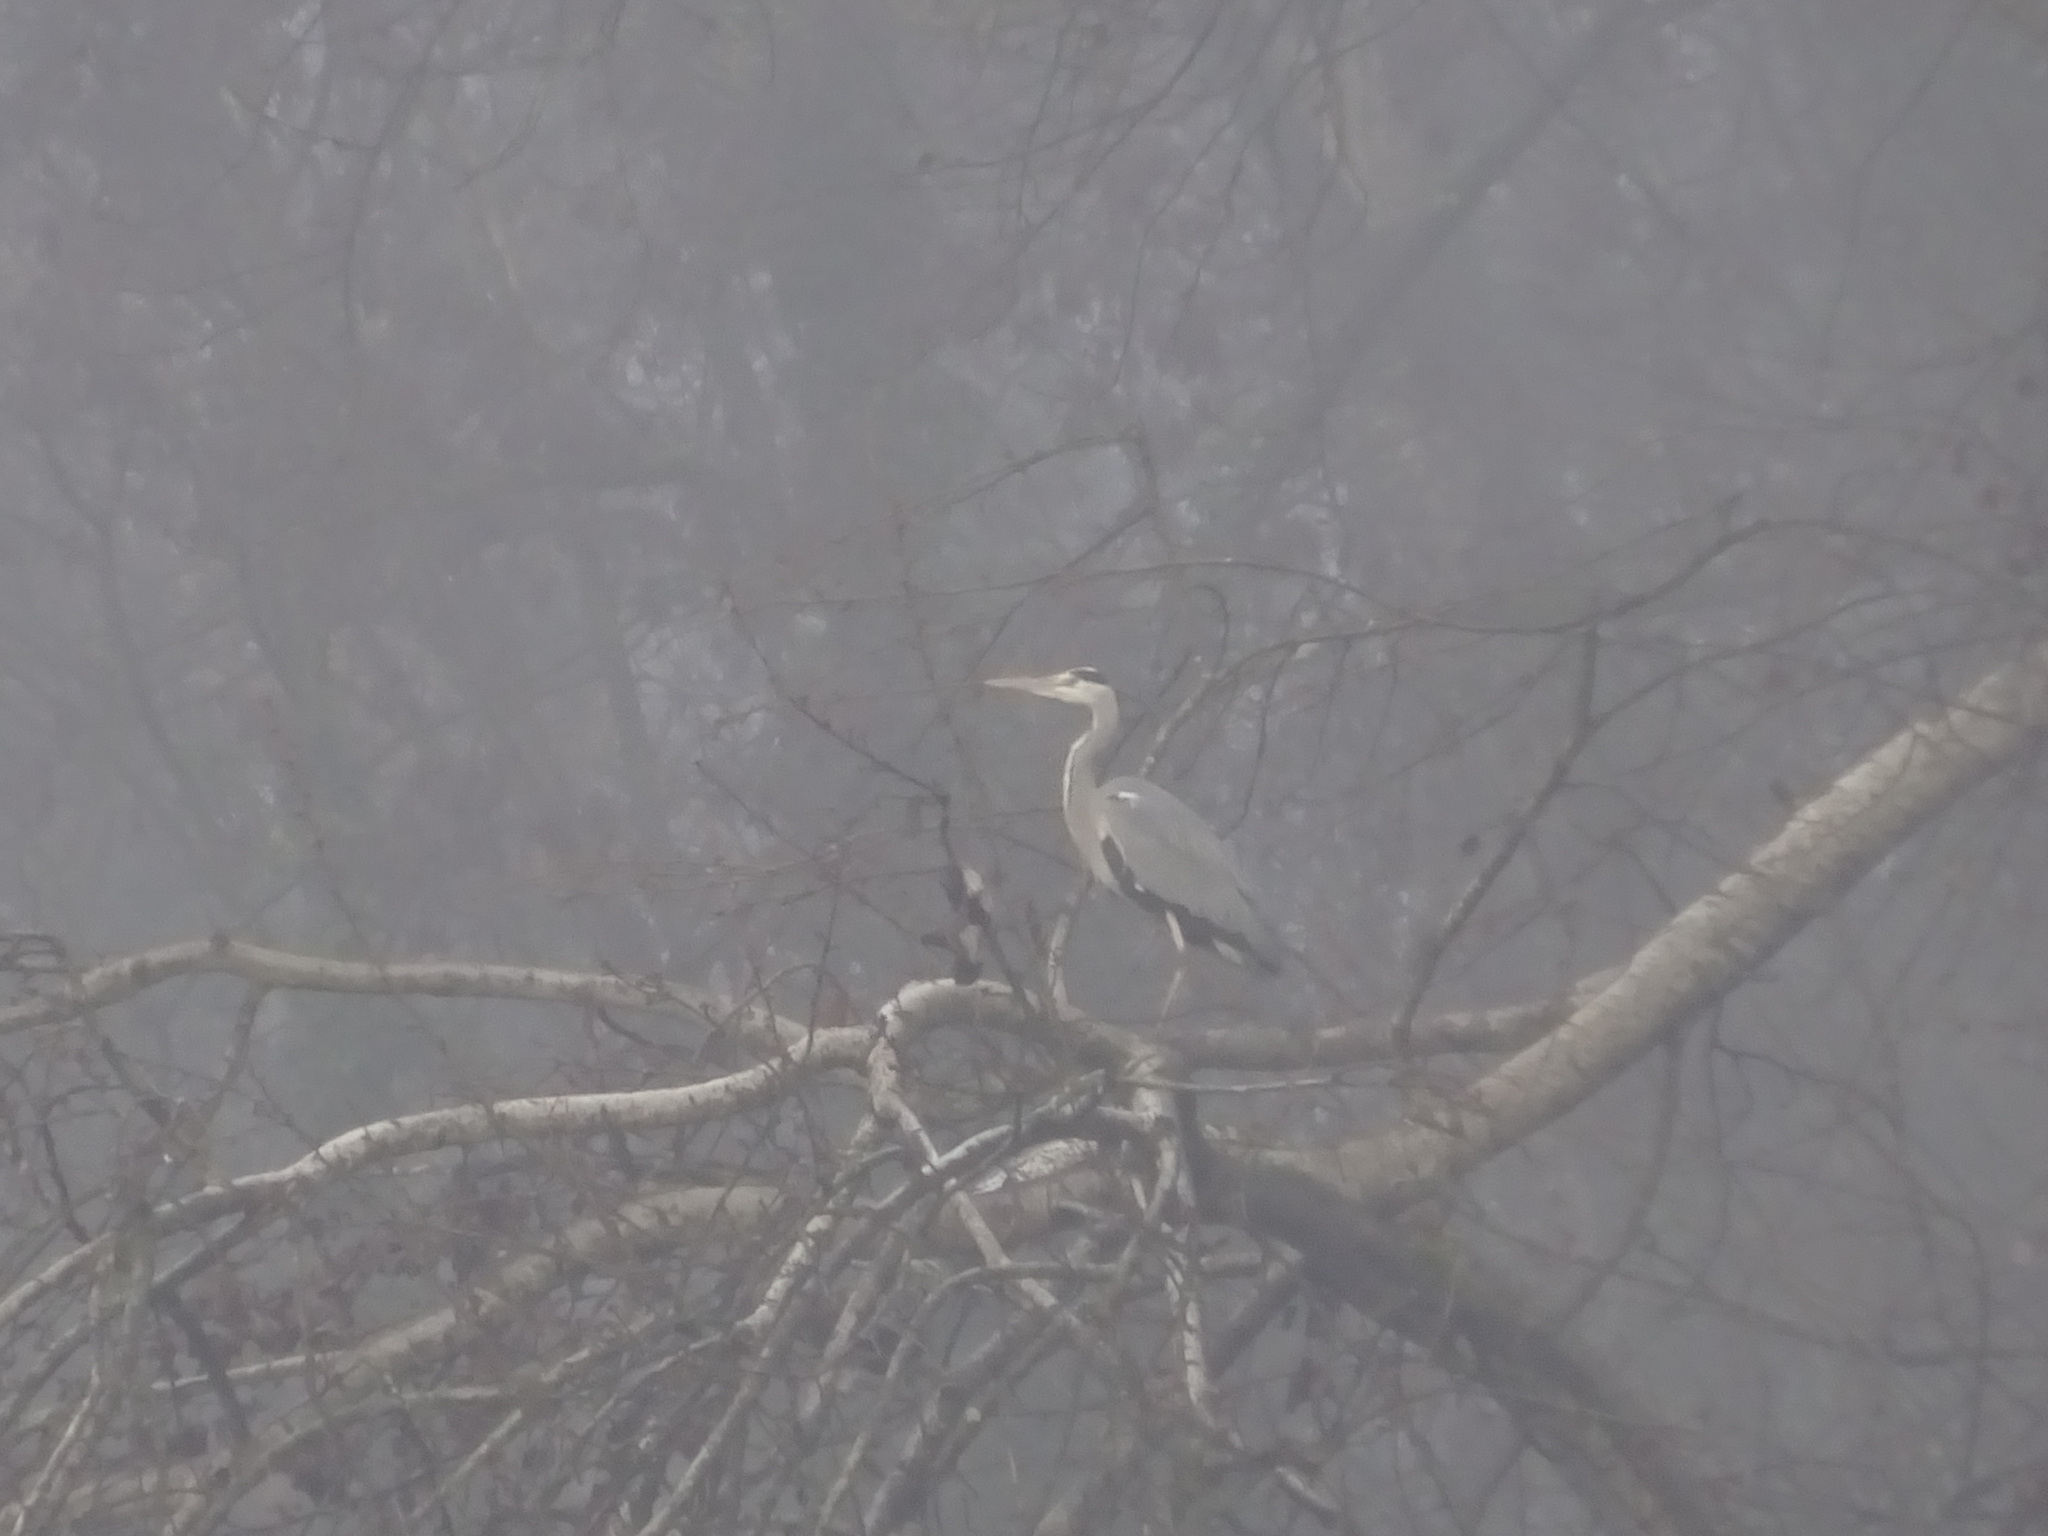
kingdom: Animalia
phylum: Chordata
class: Aves
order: Pelecaniformes
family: Ardeidae
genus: Ardea
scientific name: Ardea cinerea
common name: Grey heron
